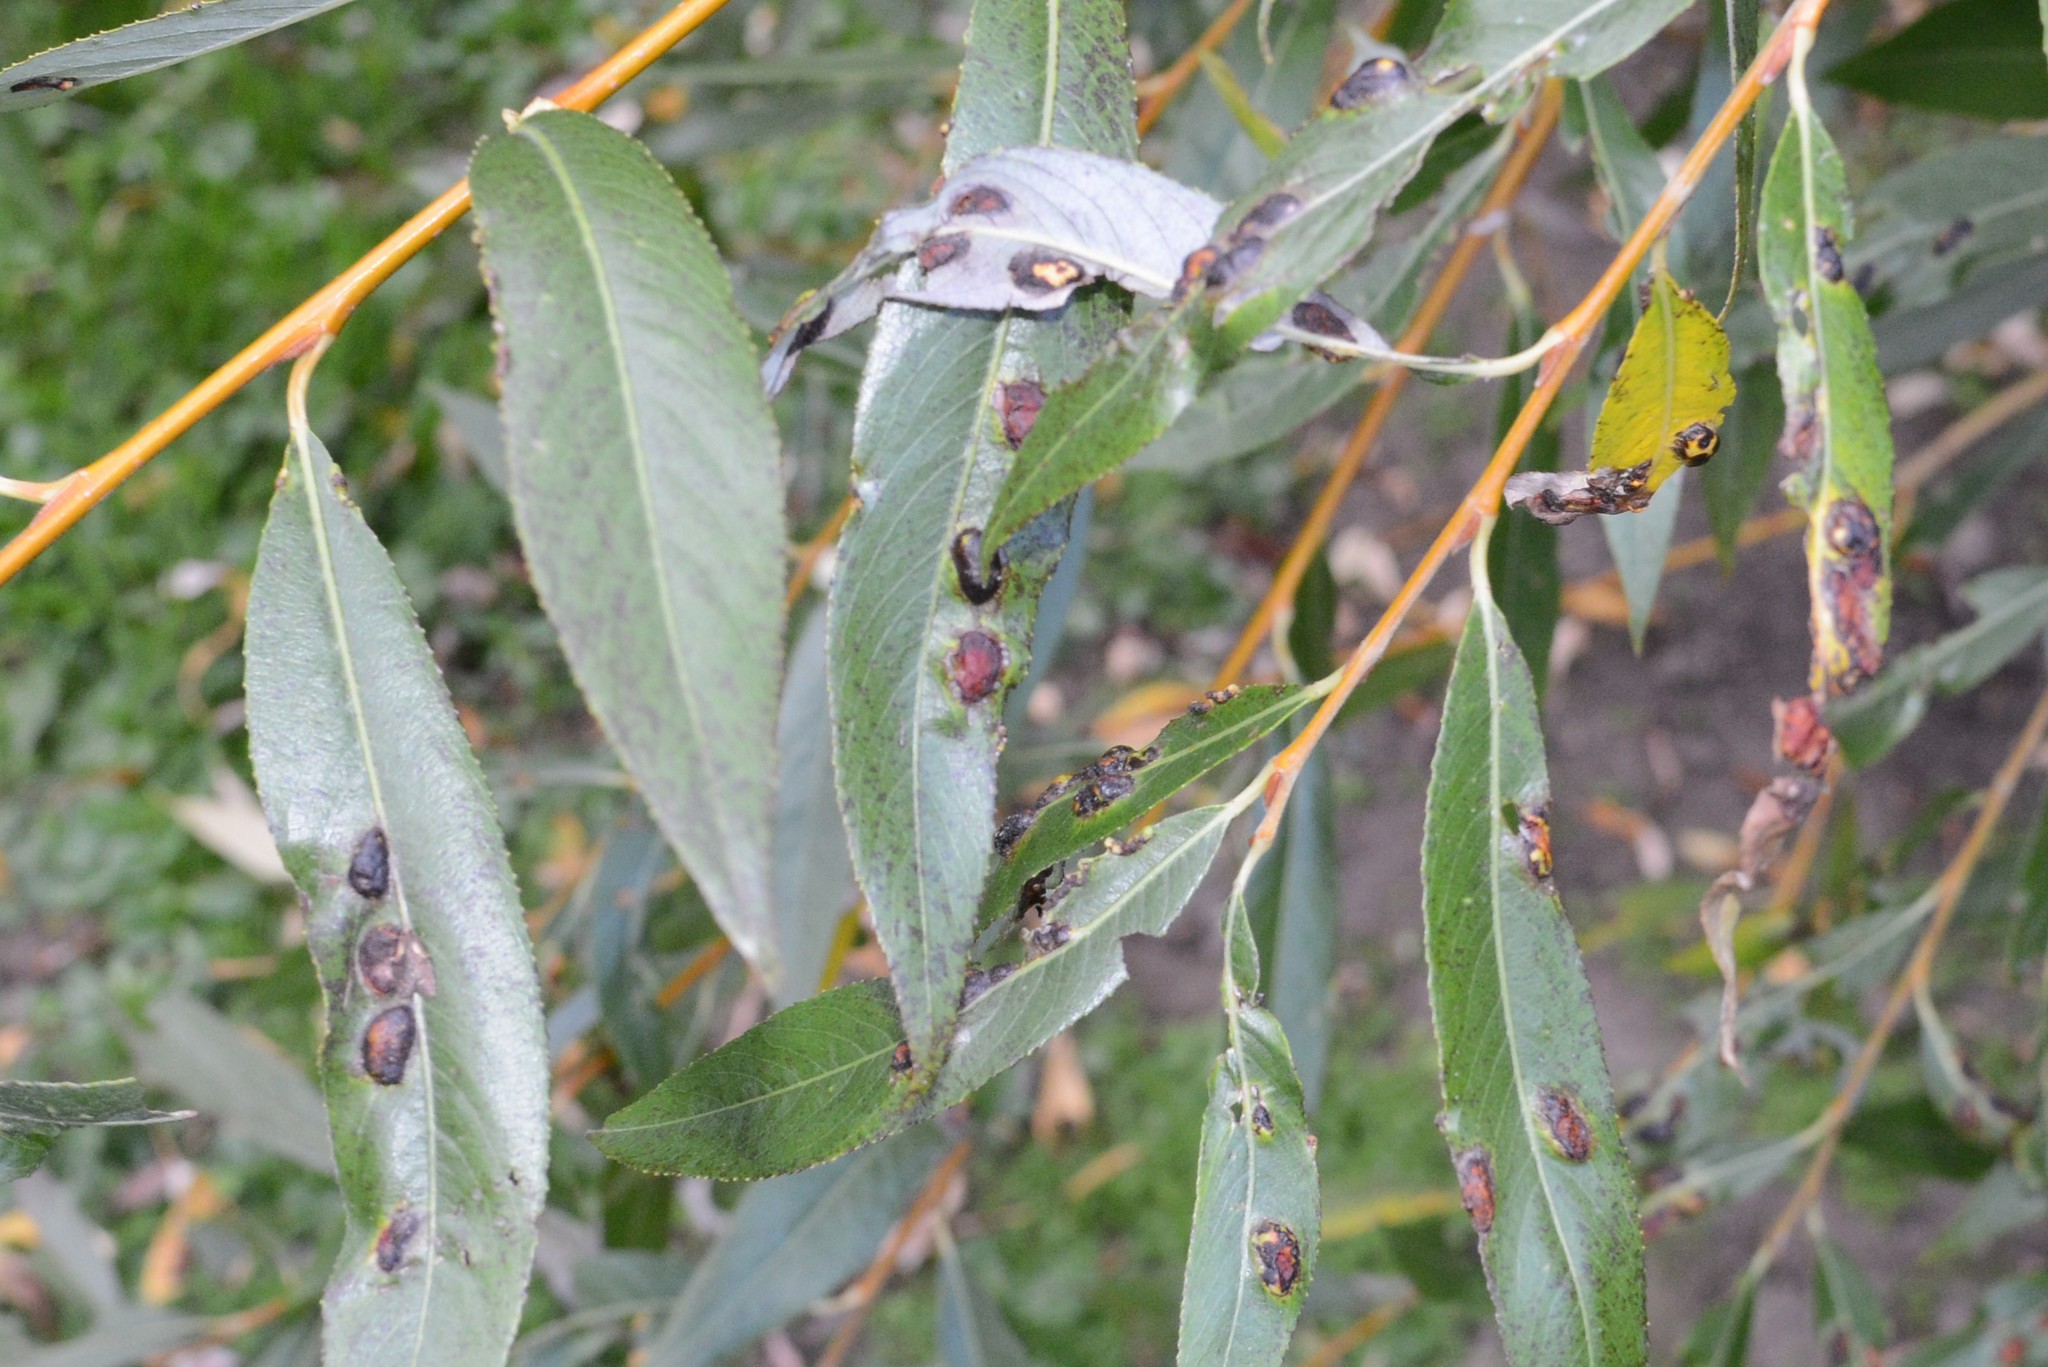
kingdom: Animalia
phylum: Arthropoda
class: Insecta
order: Hymenoptera
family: Tenthredinidae
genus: Pontania
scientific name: Pontania proxima
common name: Common sawfly
